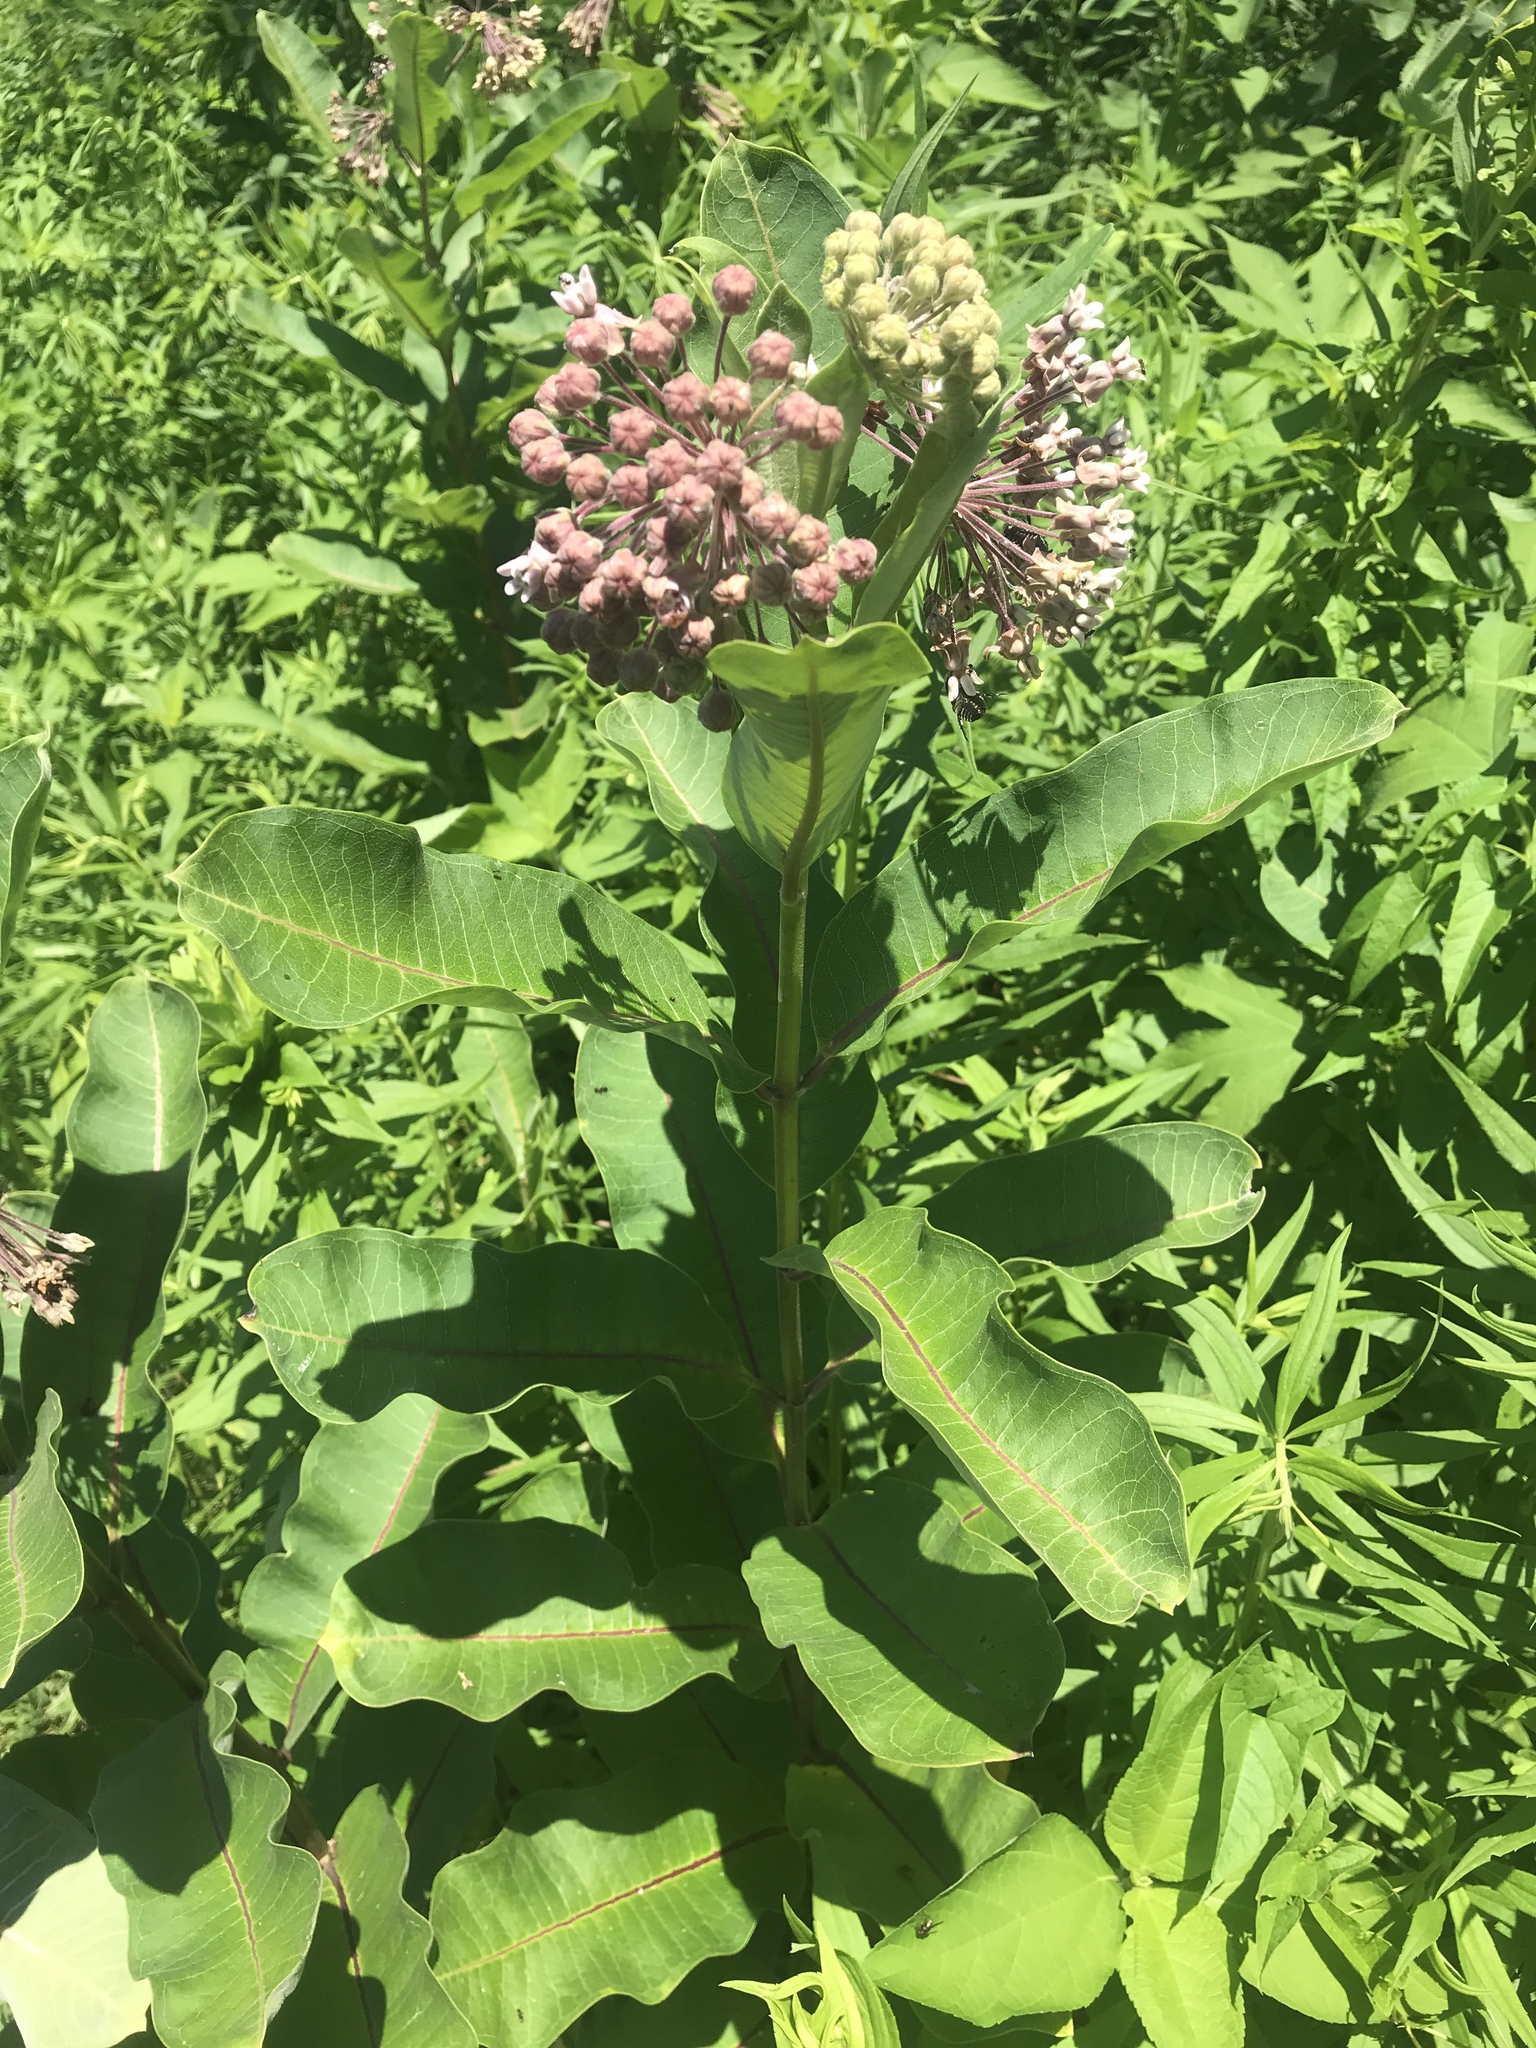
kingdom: Plantae
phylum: Tracheophyta
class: Magnoliopsida
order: Gentianales
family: Apocynaceae
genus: Asclepias
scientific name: Asclepias syriaca
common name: Common milkweed
